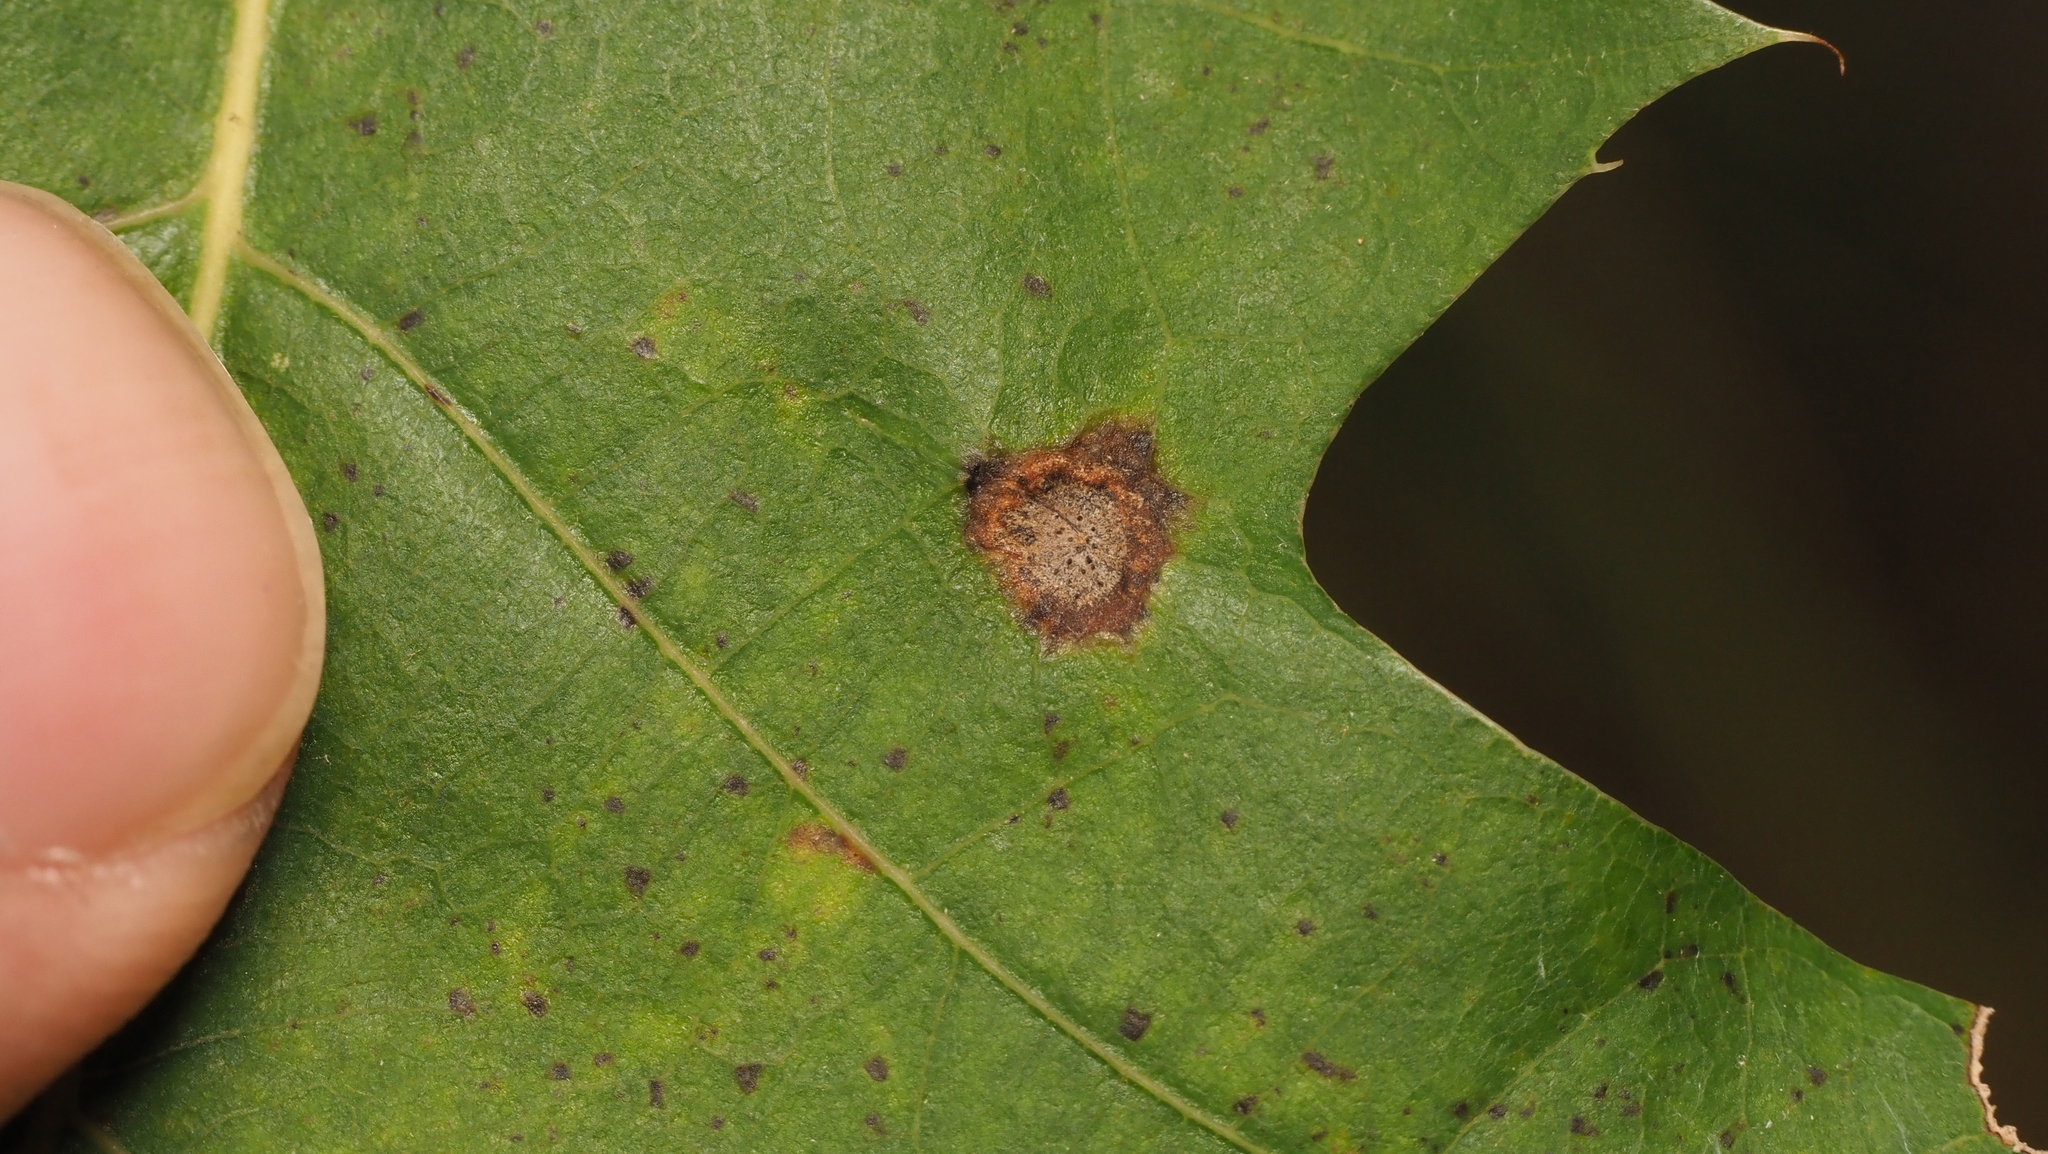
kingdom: Animalia
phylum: Arthropoda
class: Insecta
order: Hymenoptera
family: Cynipidae
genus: Dryocosmus
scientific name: Dryocosmus
